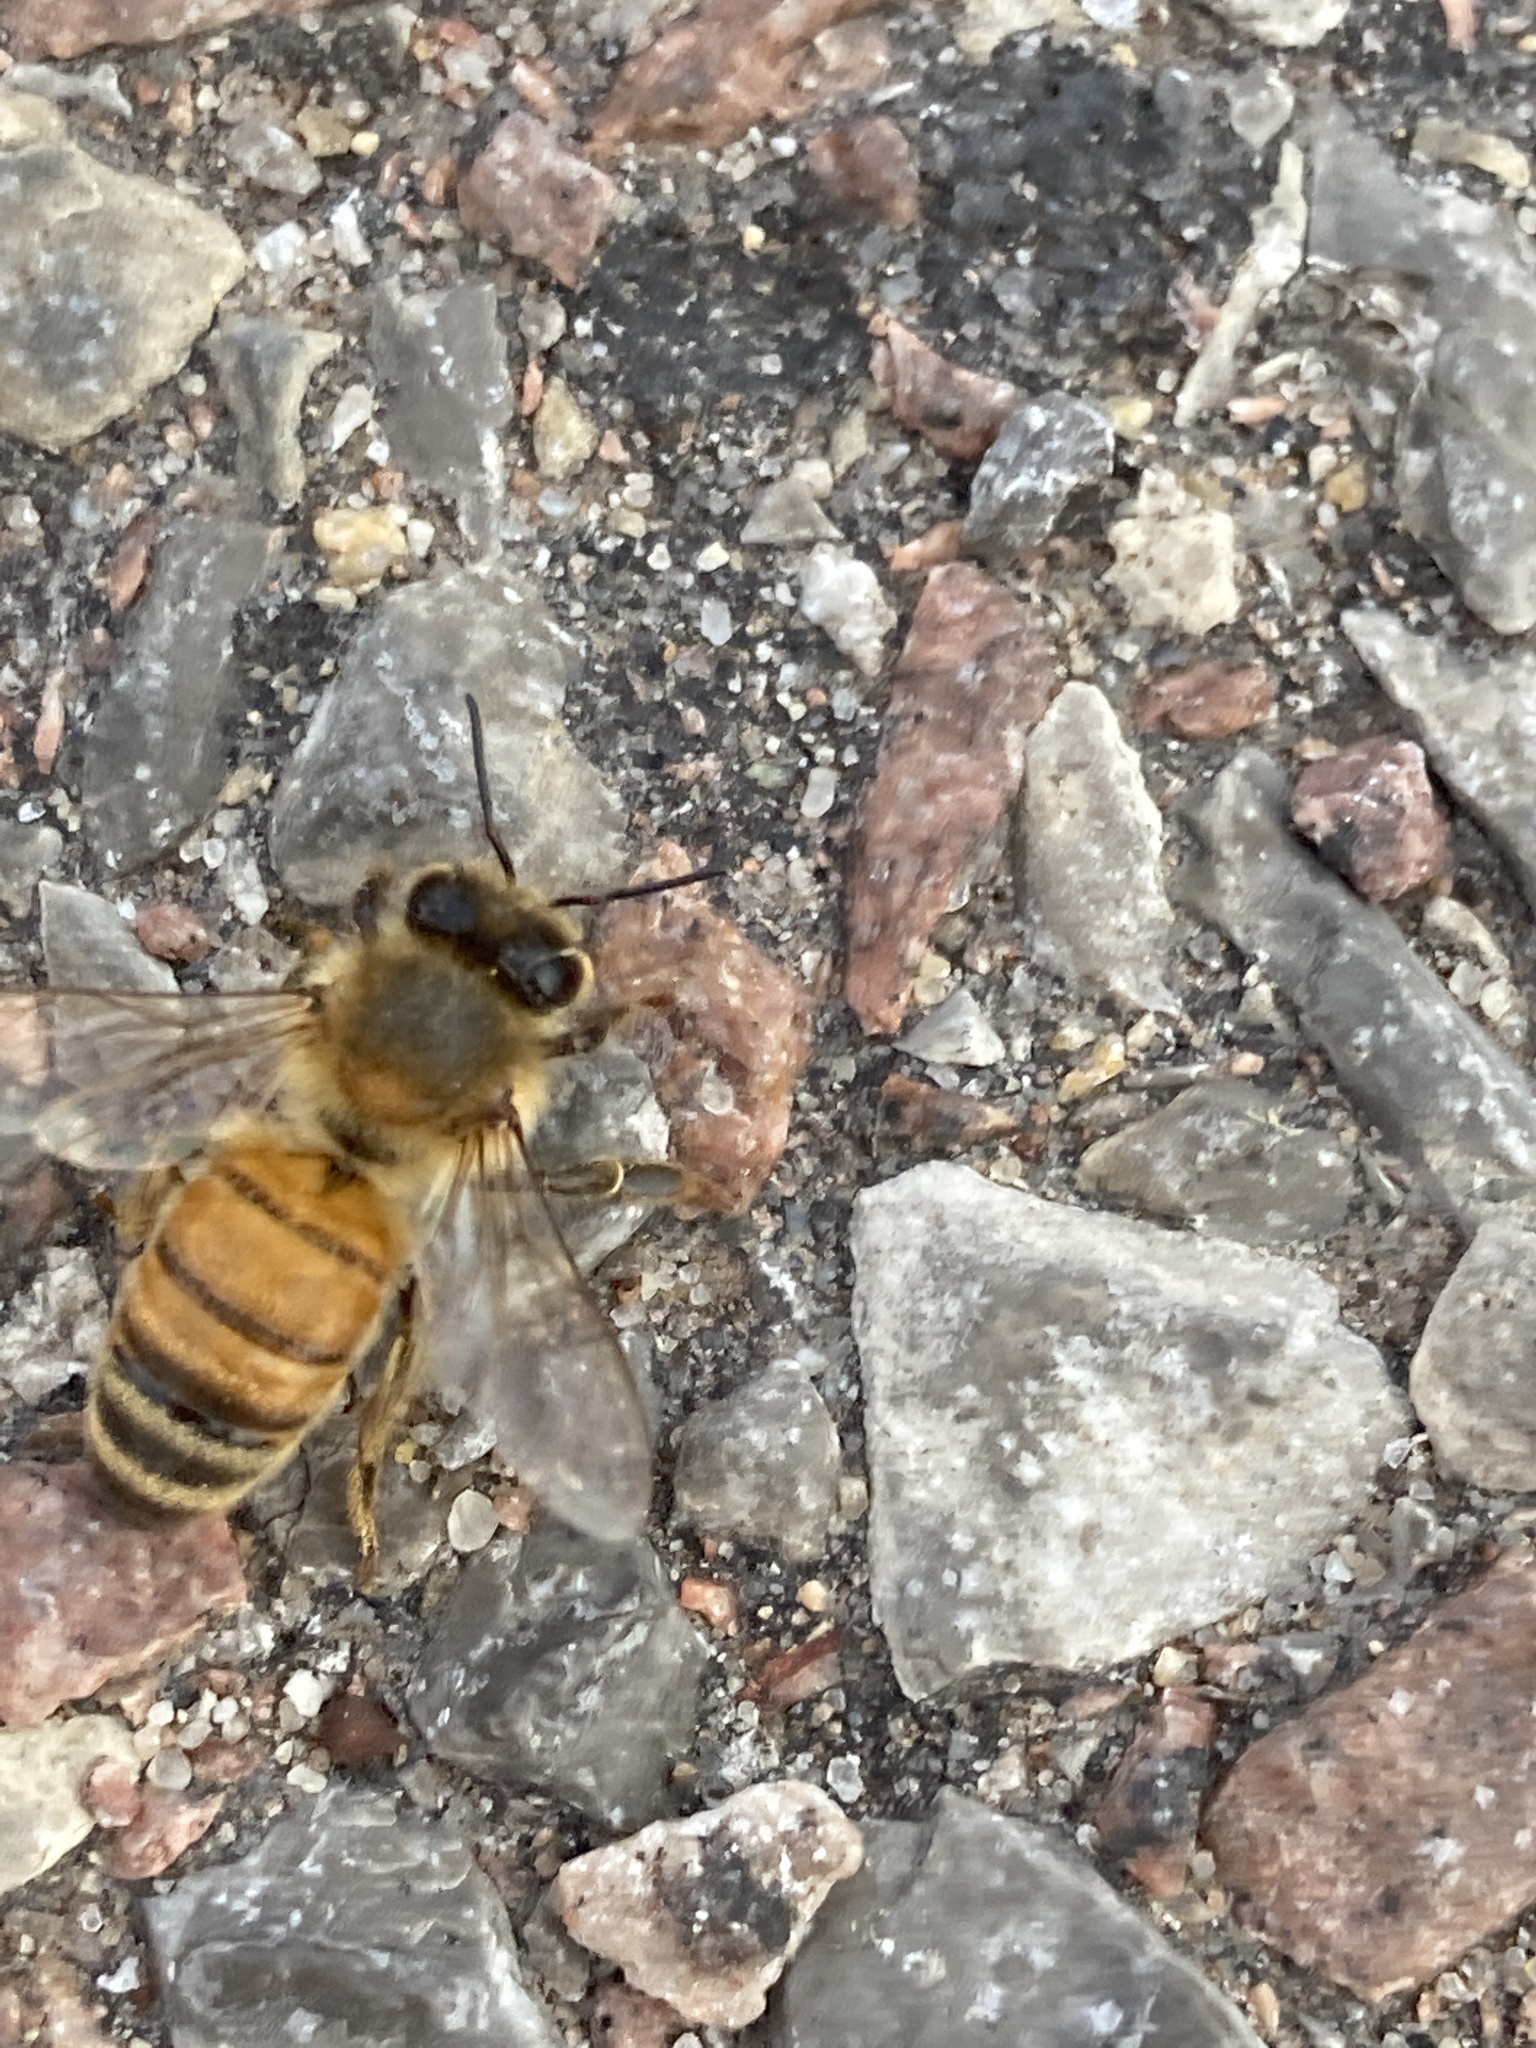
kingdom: Animalia
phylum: Arthropoda
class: Insecta
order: Hymenoptera
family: Apidae
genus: Apis
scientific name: Apis mellifera
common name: Honey bee
